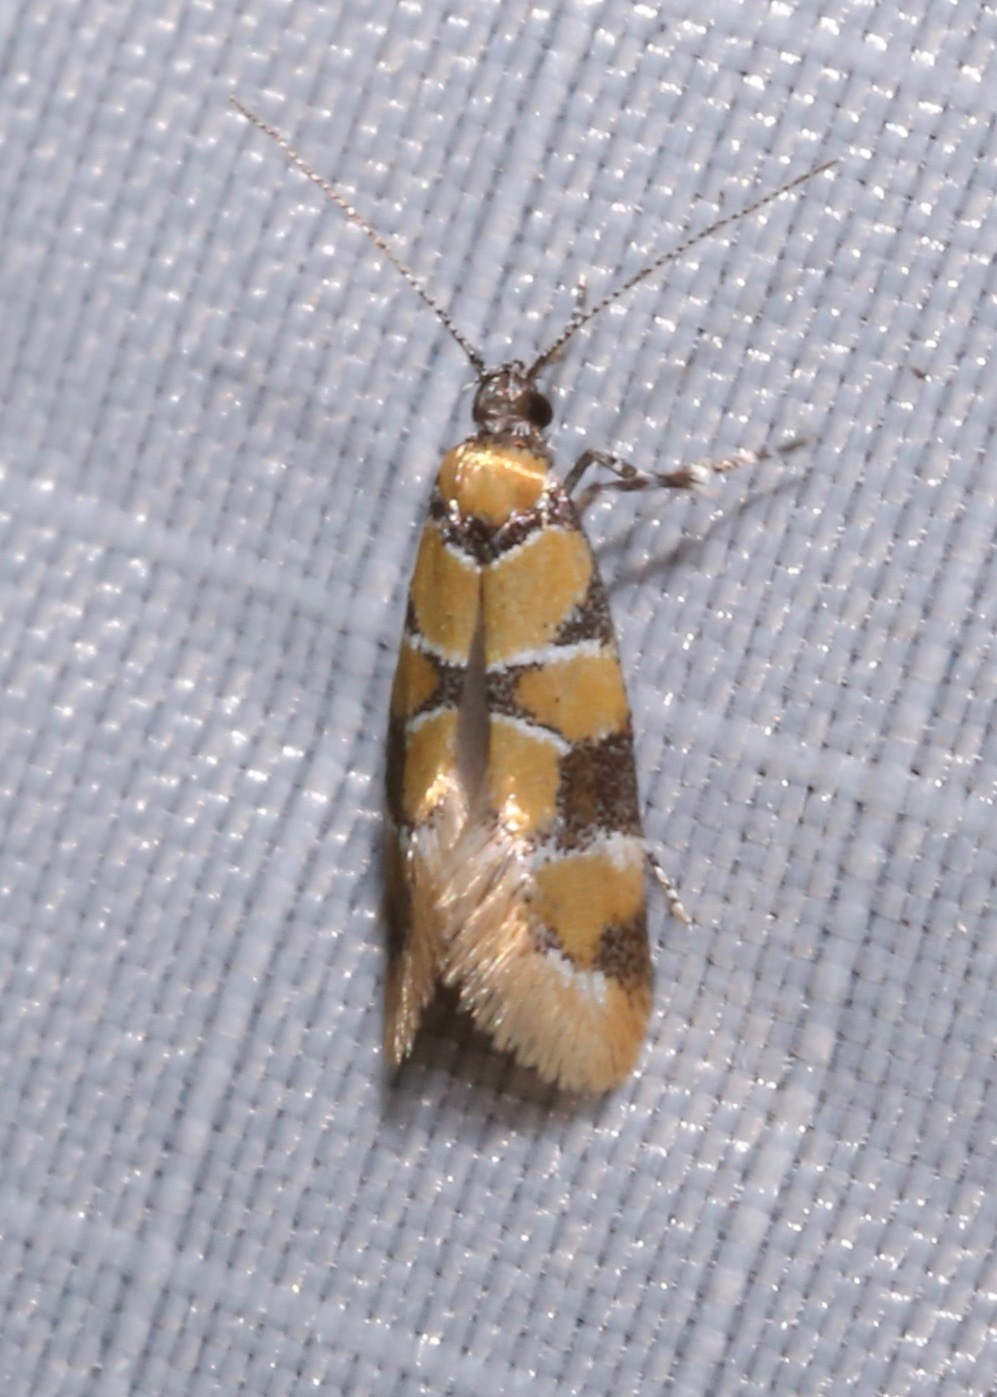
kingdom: Animalia
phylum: Arthropoda
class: Insecta
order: Lepidoptera
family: Oecophoridae
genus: Decantha
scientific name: Decantha borkhausenii
